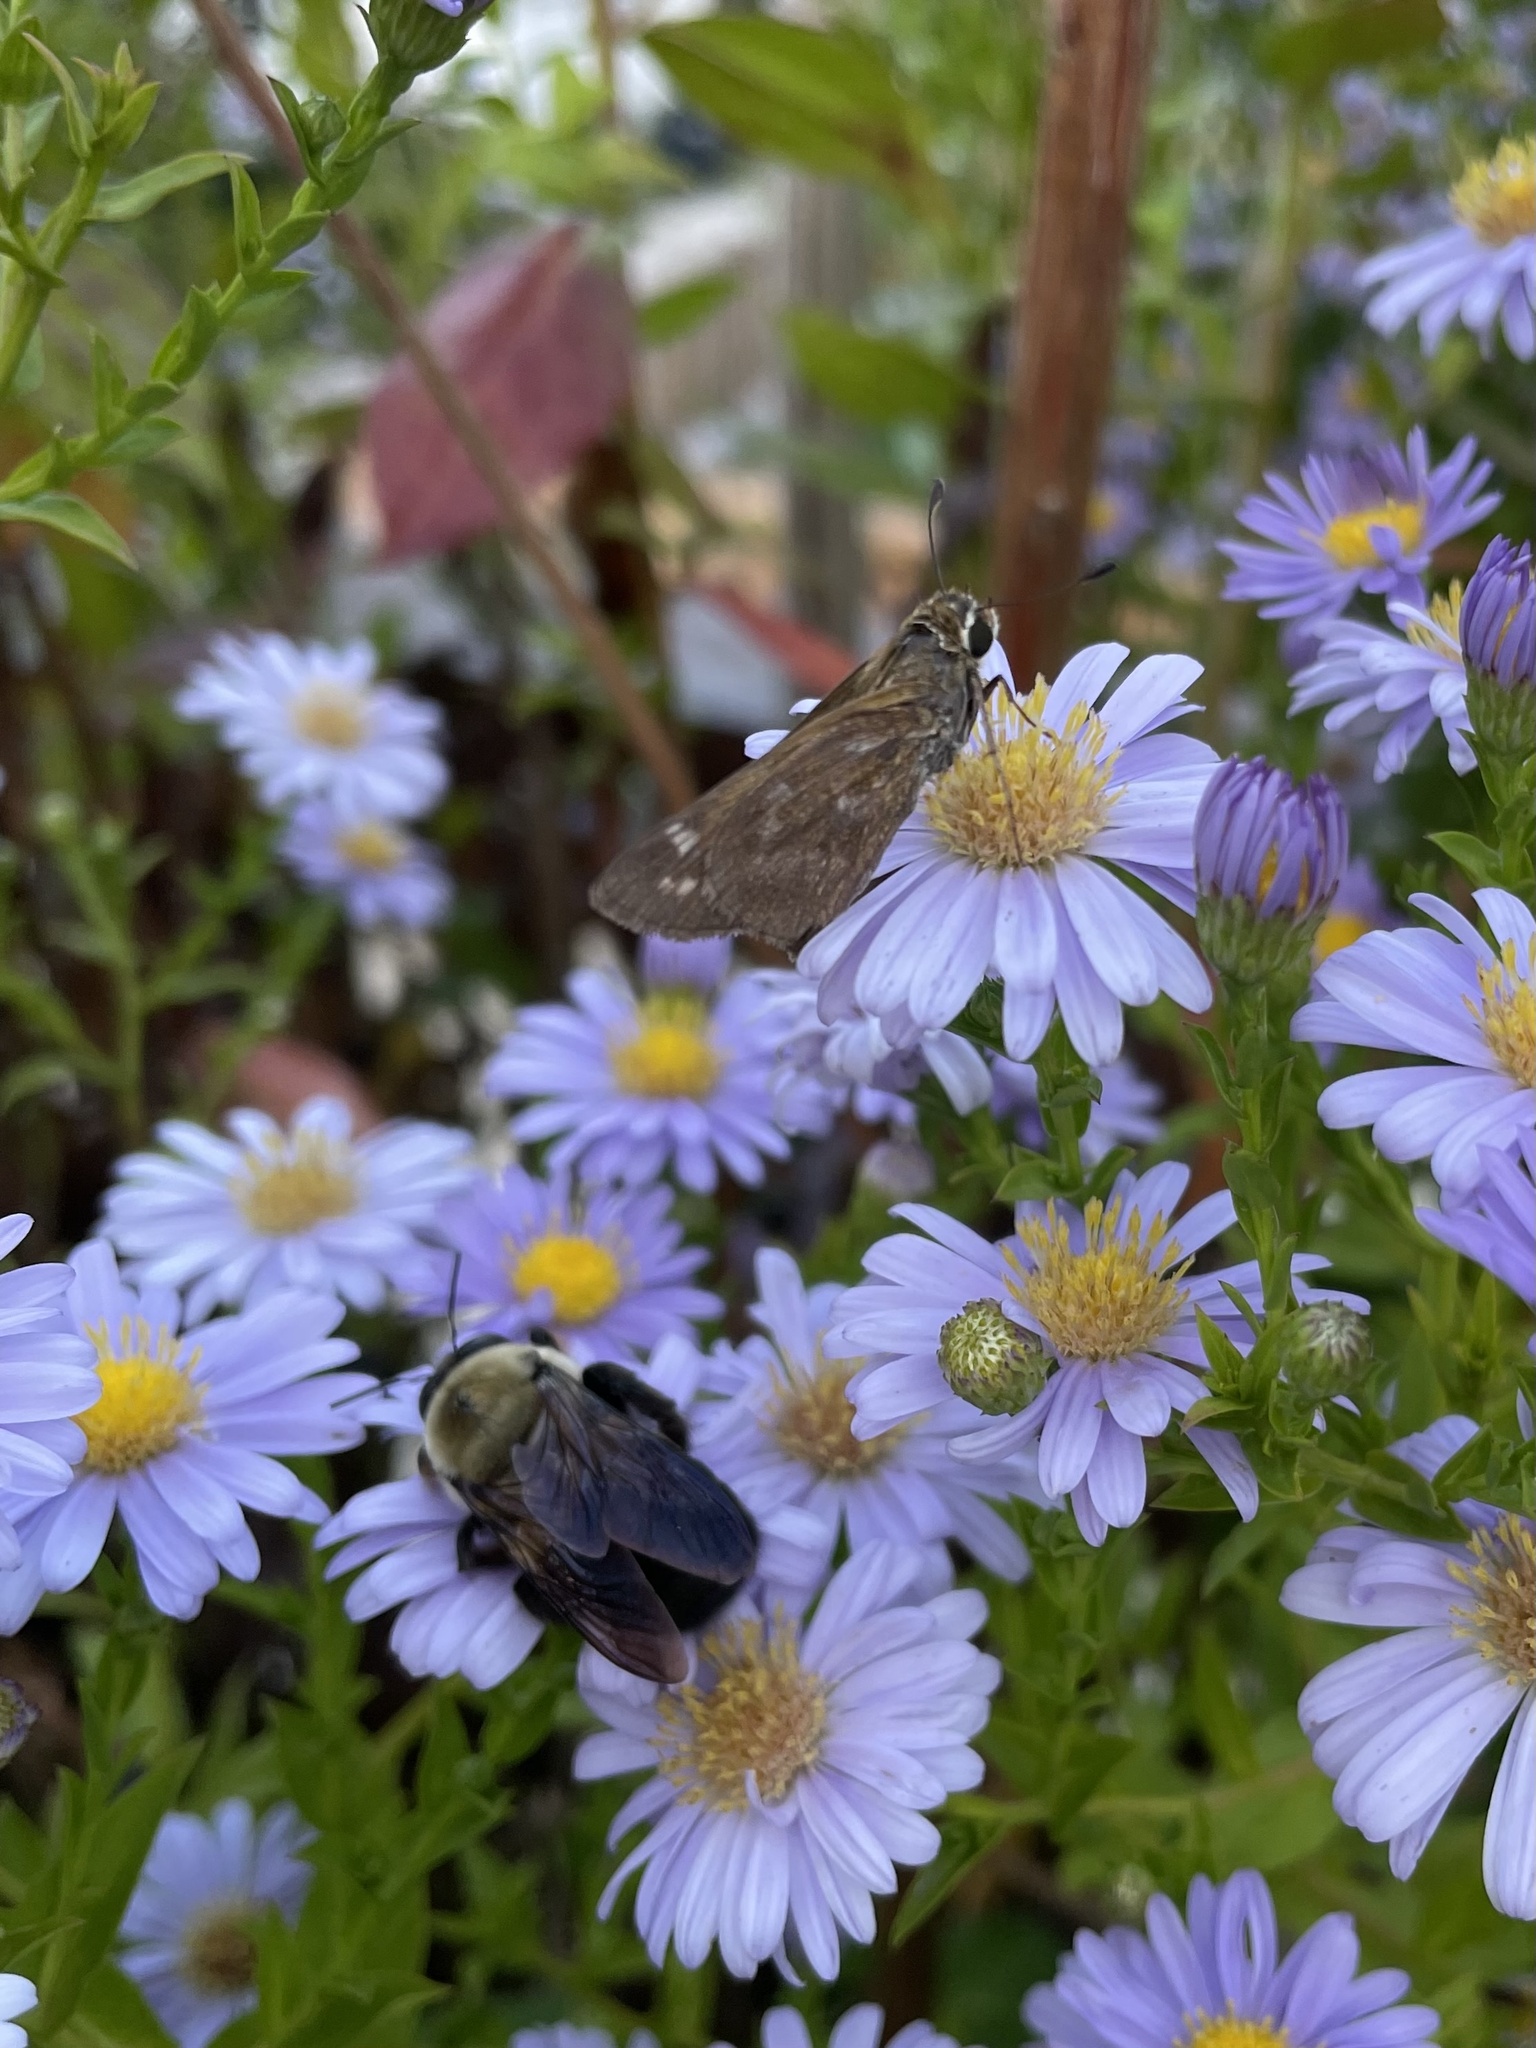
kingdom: Animalia
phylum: Arthropoda
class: Insecta
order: Lepidoptera
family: Hesperiidae
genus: Atalopedes
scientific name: Atalopedes
